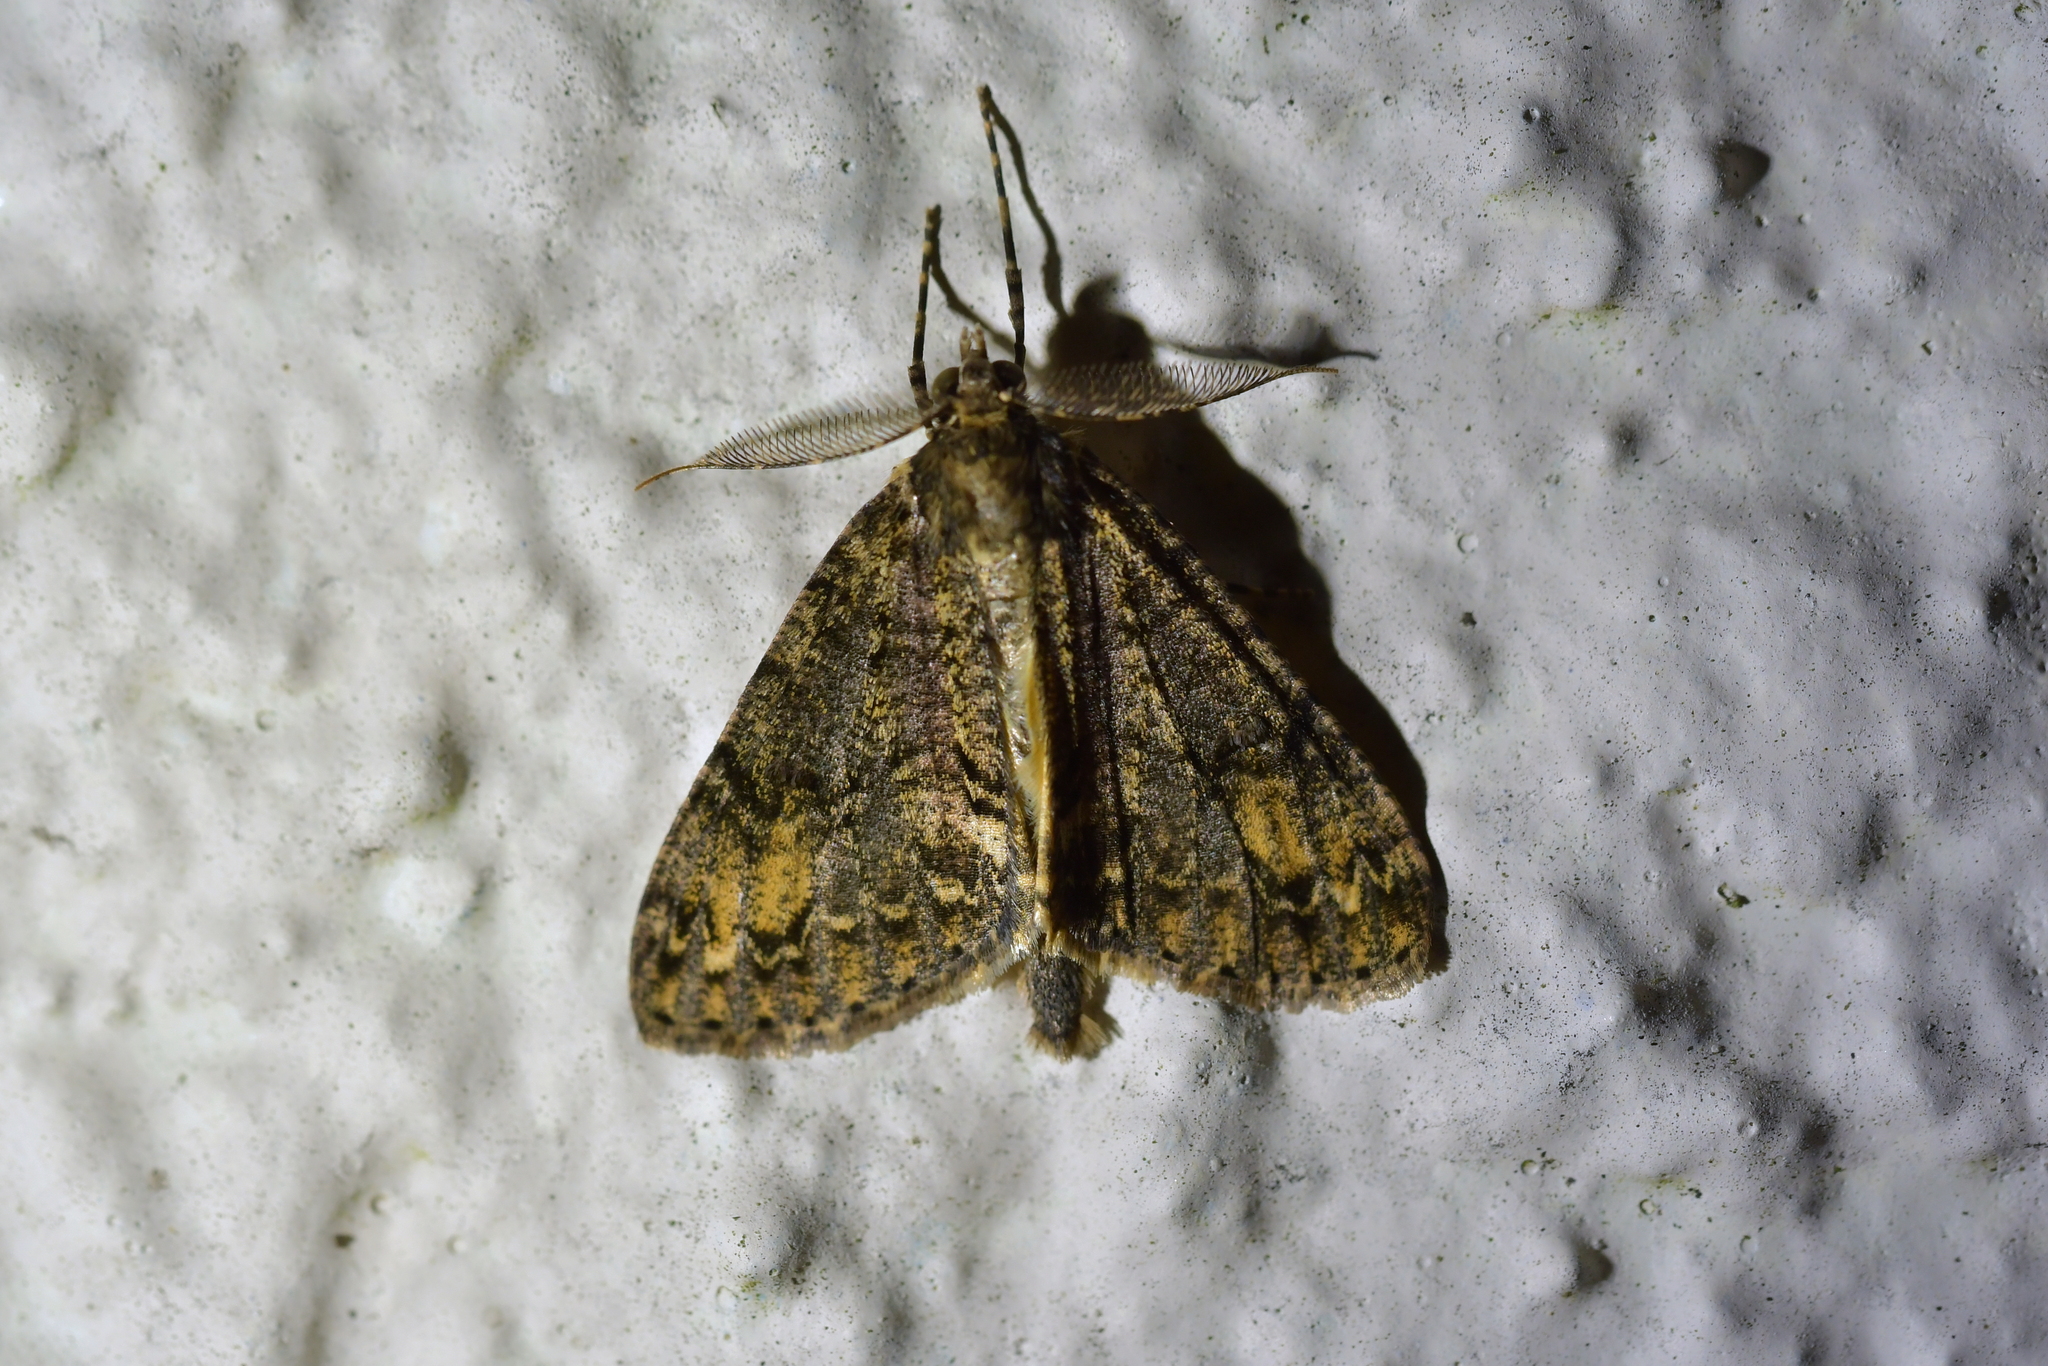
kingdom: Animalia
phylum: Arthropoda
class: Insecta
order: Lepidoptera
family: Geometridae
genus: Pseudocoremia
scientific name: Pseudocoremia suavis
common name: Common forest looper
